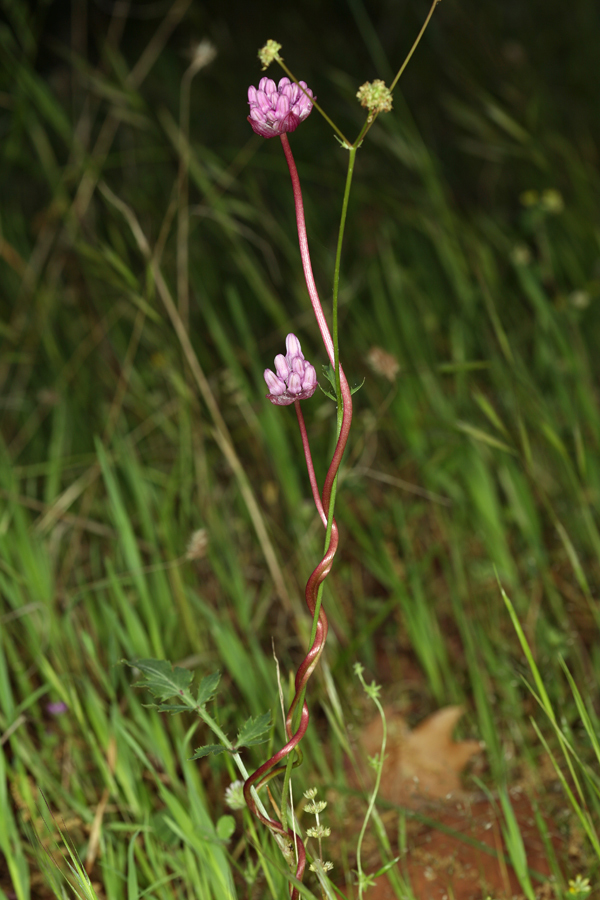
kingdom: Plantae
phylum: Tracheophyta
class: Liliopsida
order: Asparagales
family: Asparagaceae
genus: Dichelostemma
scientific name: Dichelostemma volubile
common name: Trining brodiaea
